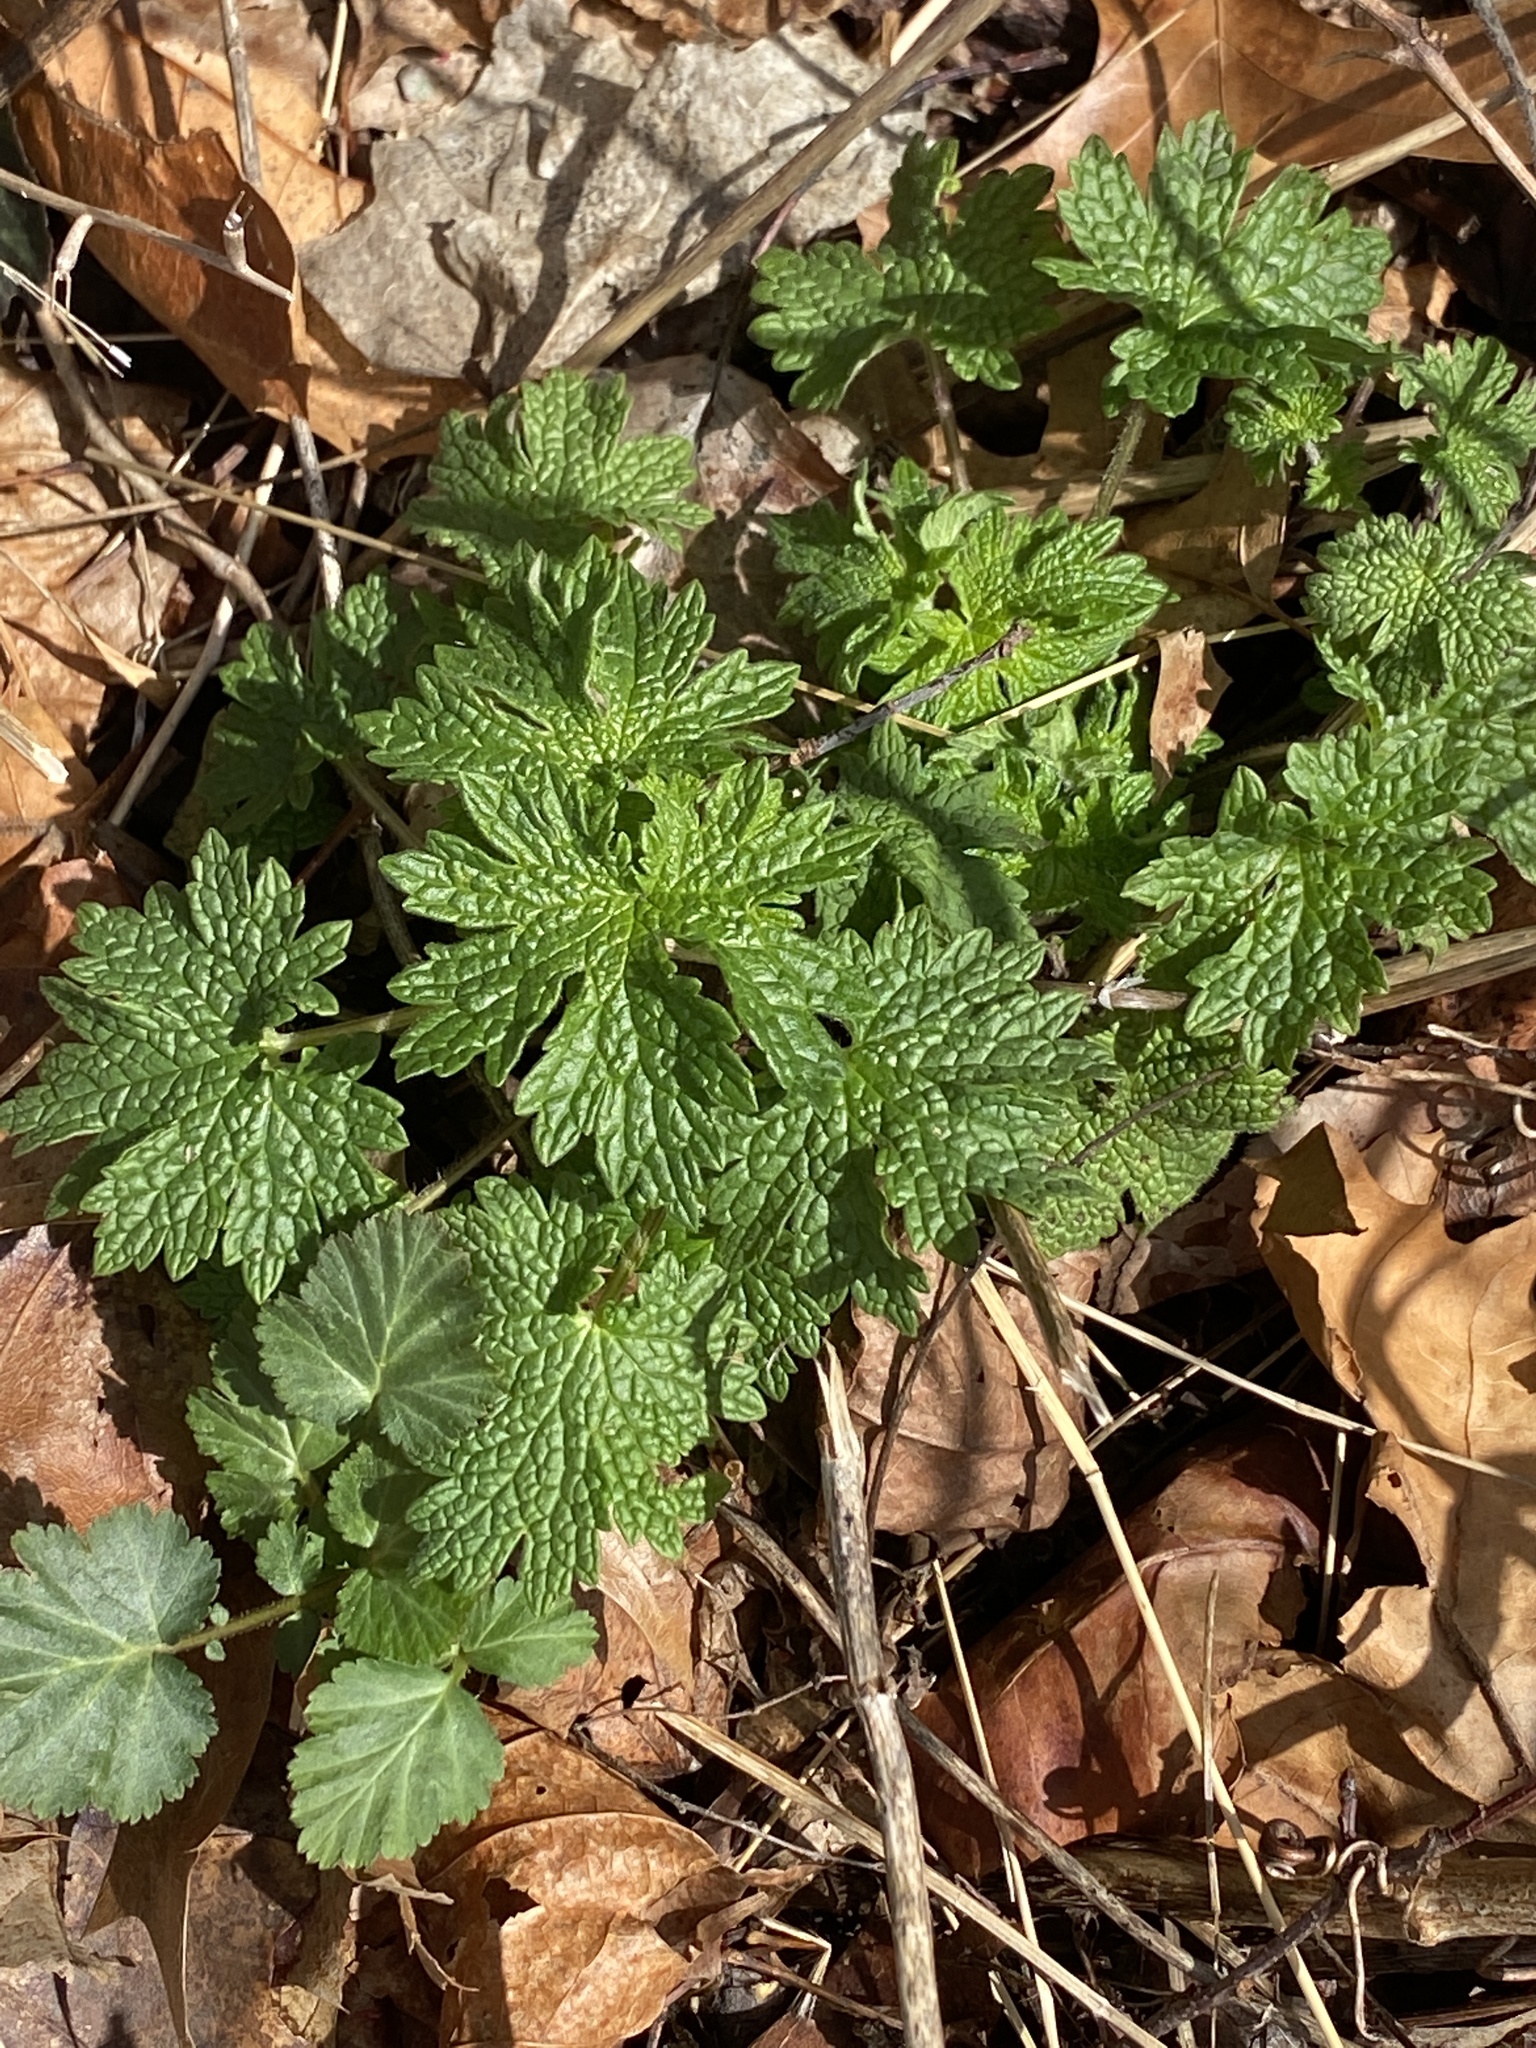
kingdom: Plantae
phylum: Tracheophyta
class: Magnoliopsida
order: Lamiales
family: Lamiaceae
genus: Leonurus
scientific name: Leonurus cardiaca
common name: Motherwort
